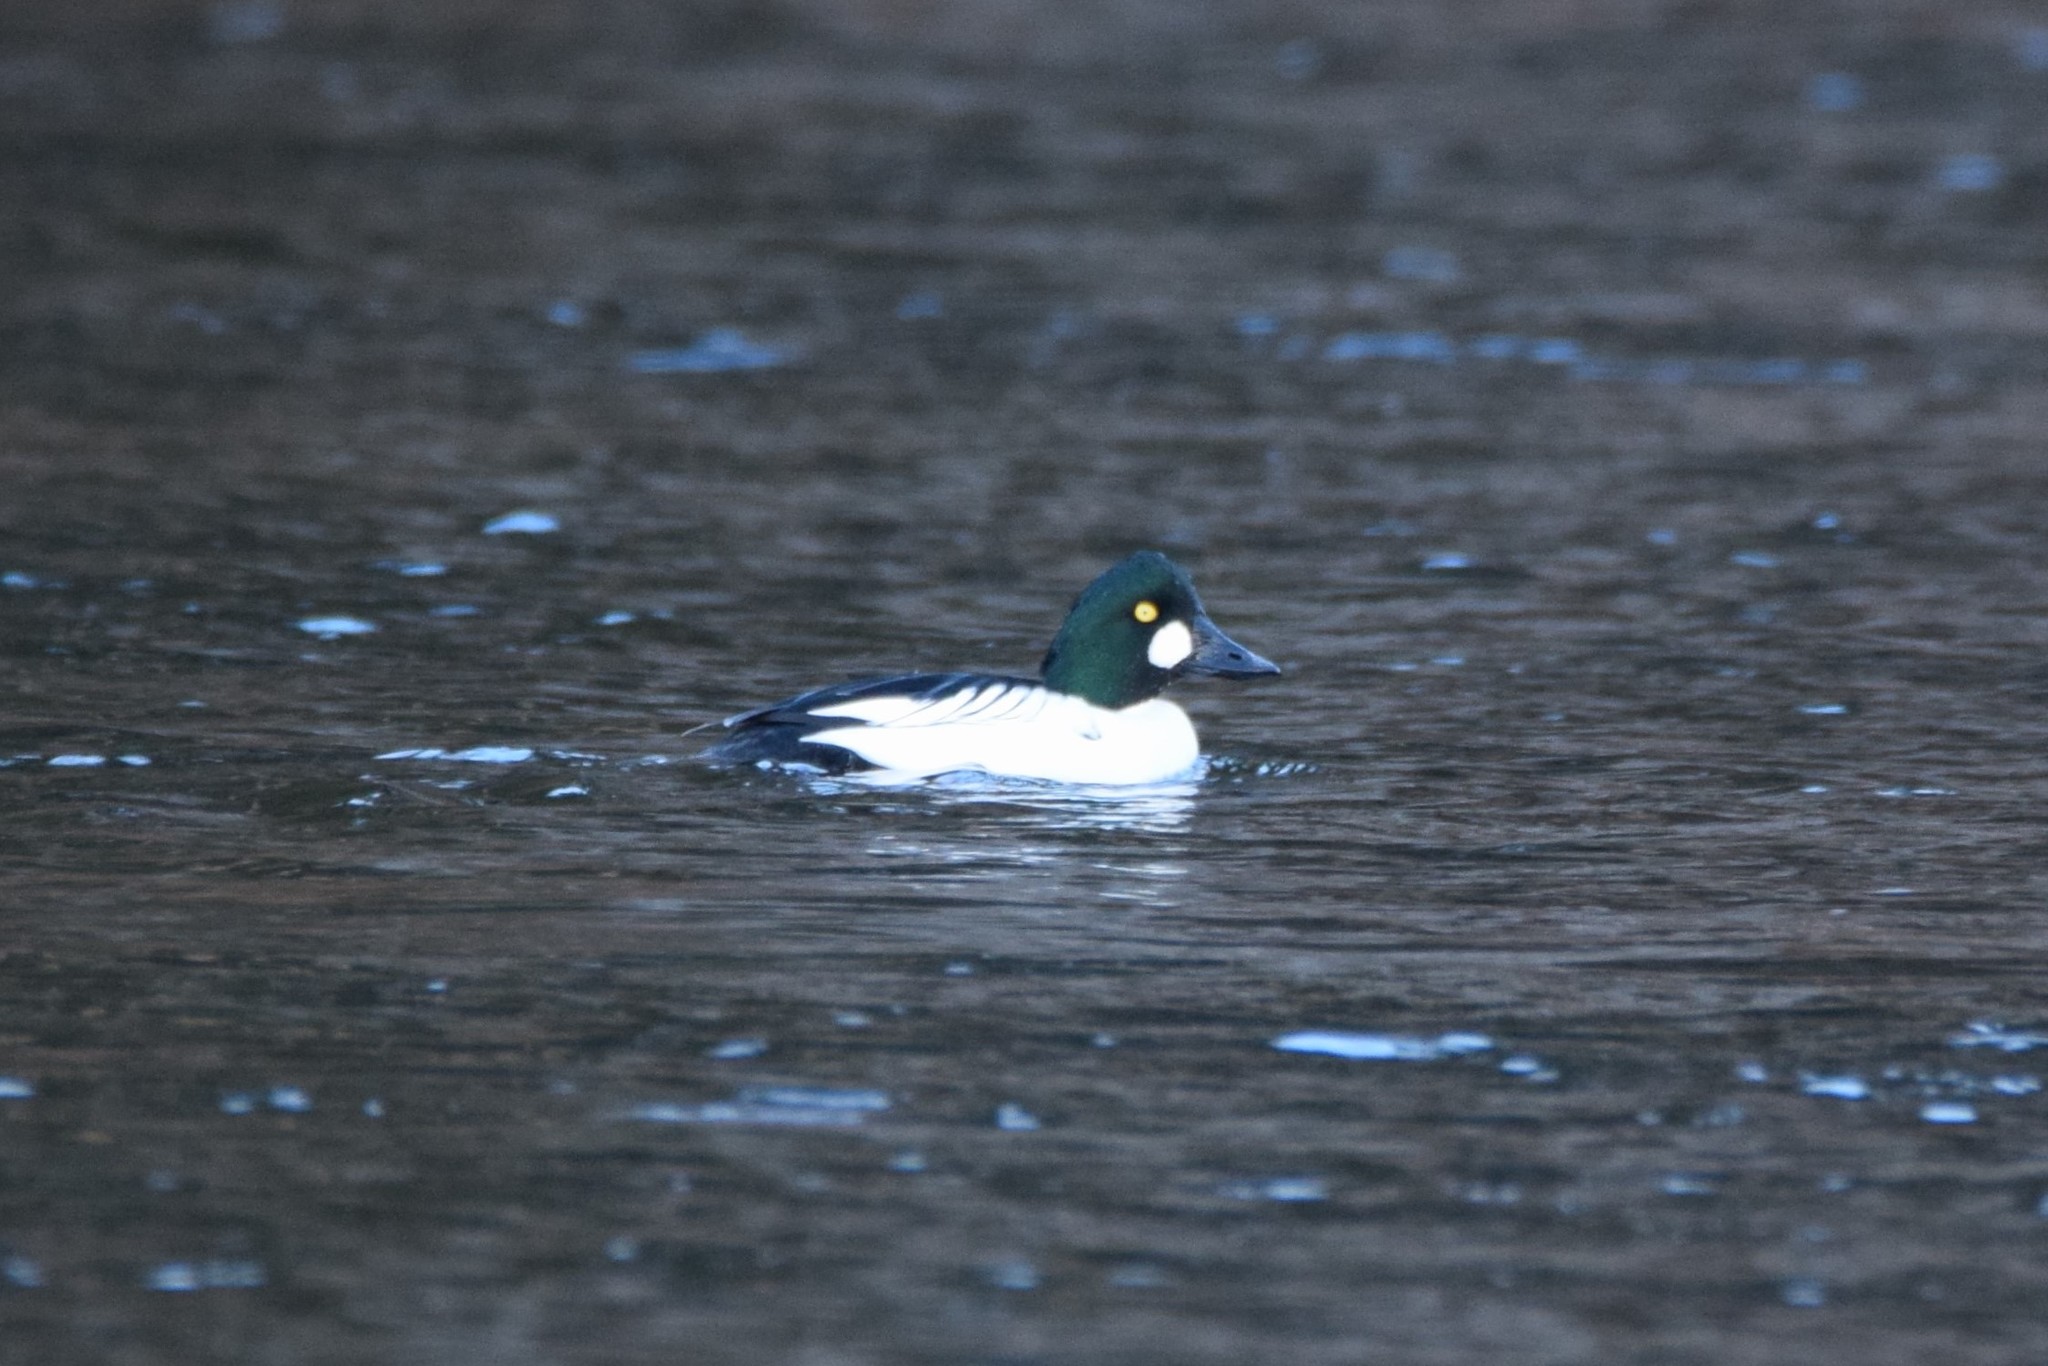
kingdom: Animalia
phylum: Chordata
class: Aves
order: Anseriformes
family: Anatidae
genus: Bucephala
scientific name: Bucephala clangula
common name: Common goldeneye
